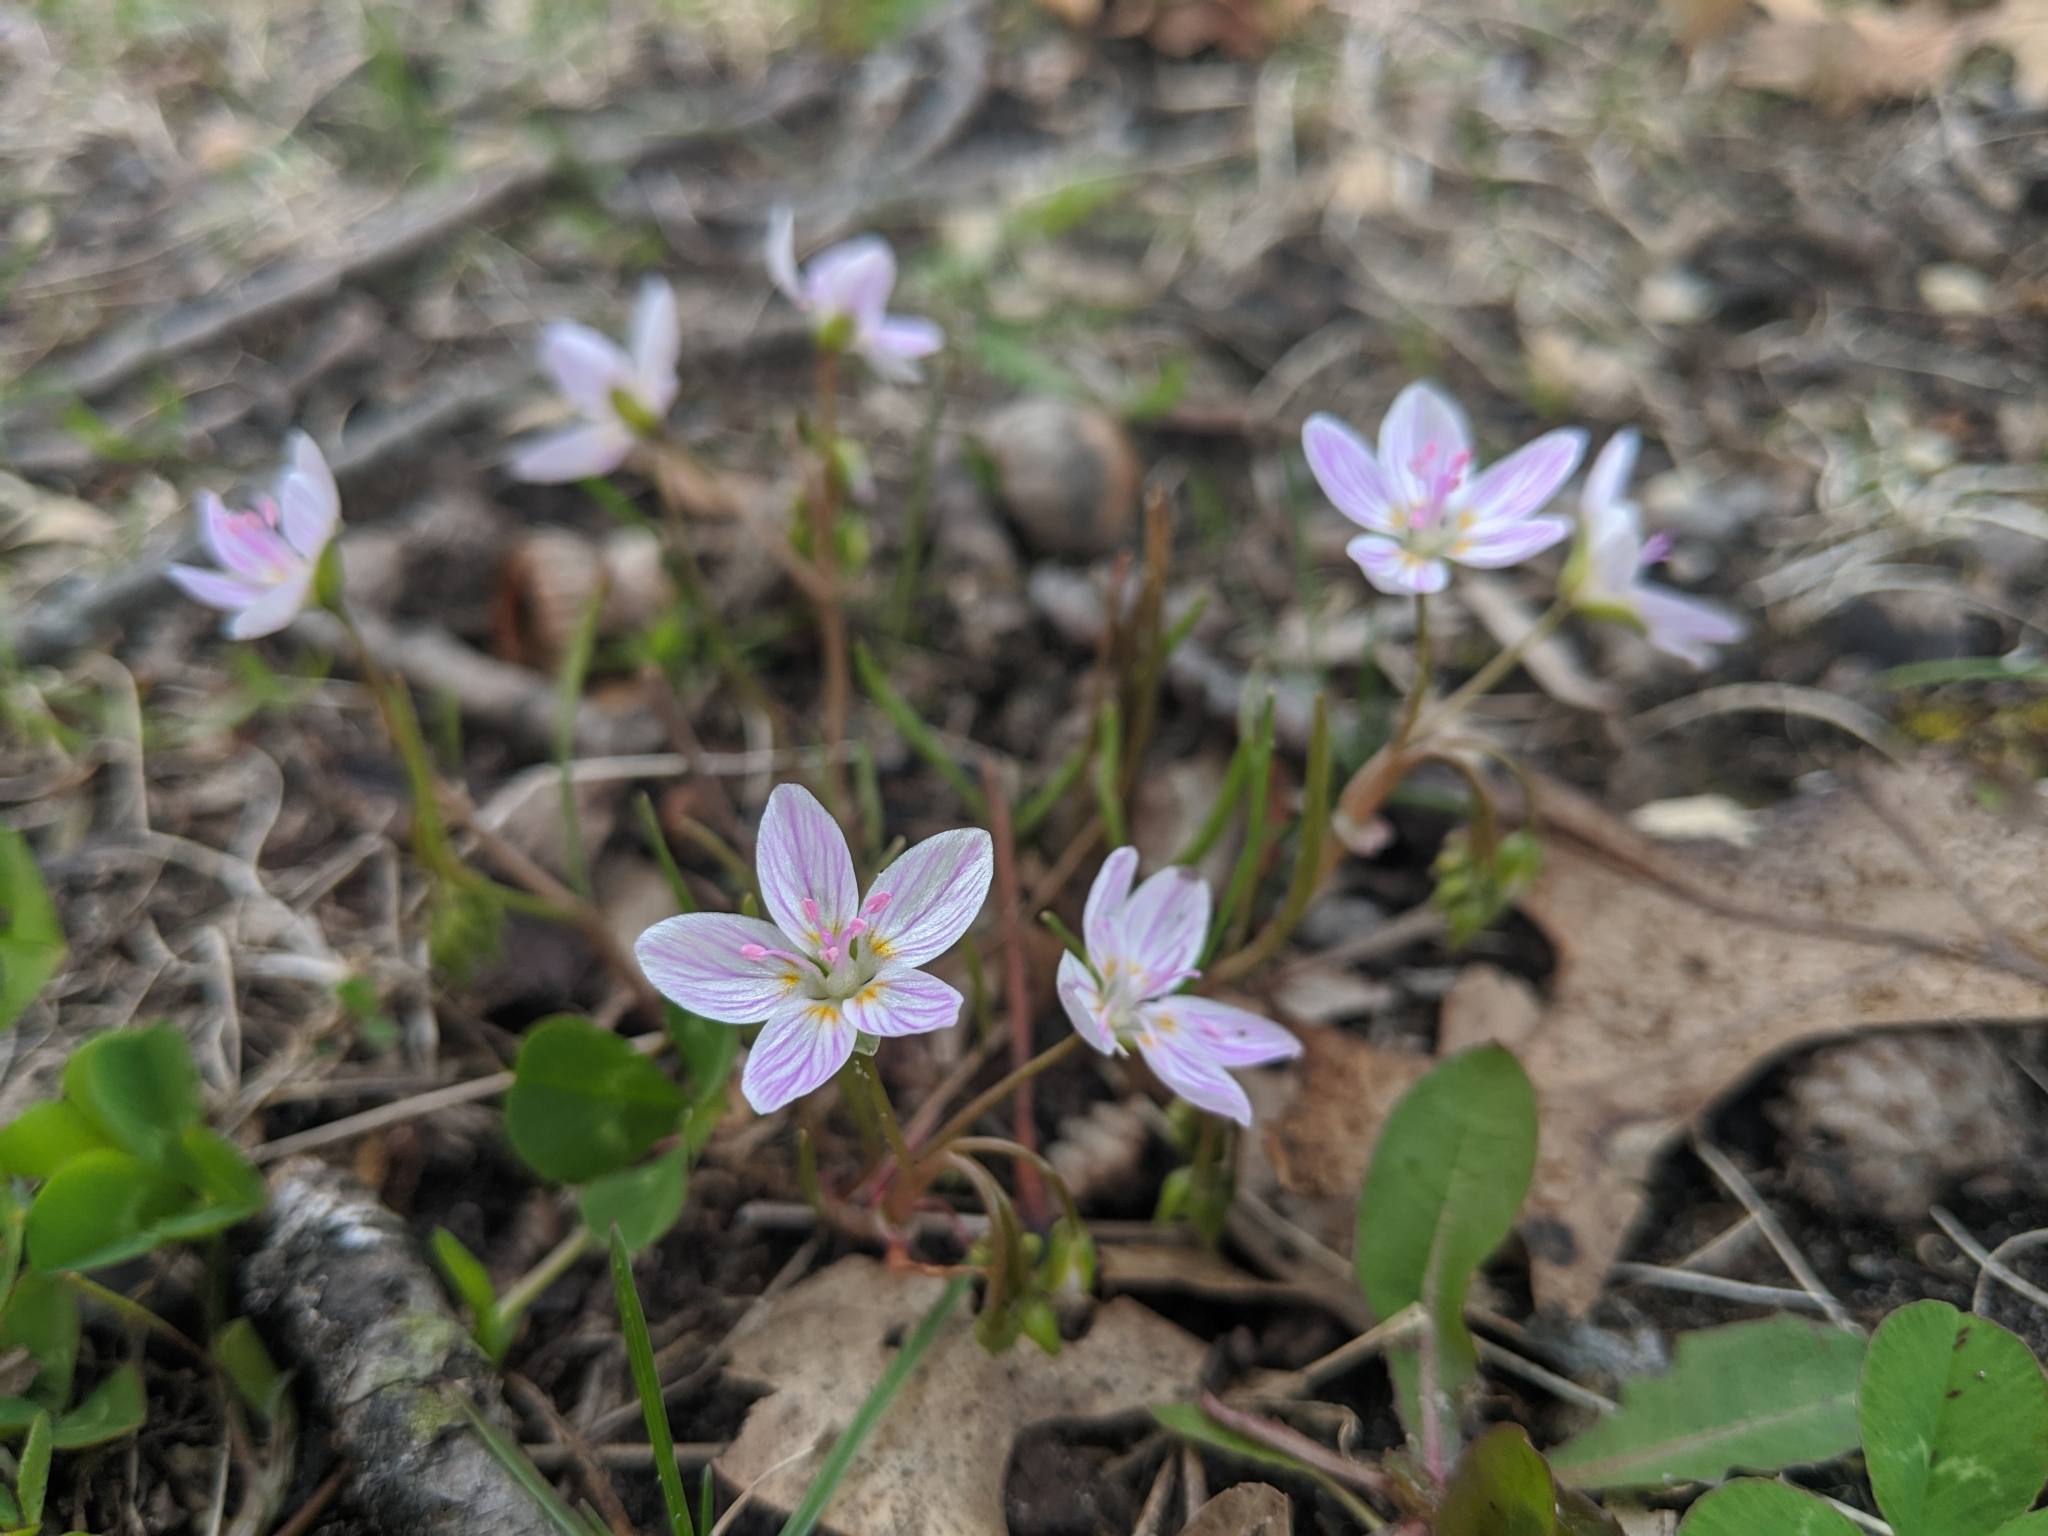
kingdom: Plantae
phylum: Tracheophyta
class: Magnoliopsida
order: Caryophyllales
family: Montiaceae
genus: Claytonia
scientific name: Claytonia virginica
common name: Virginia springbeauty
